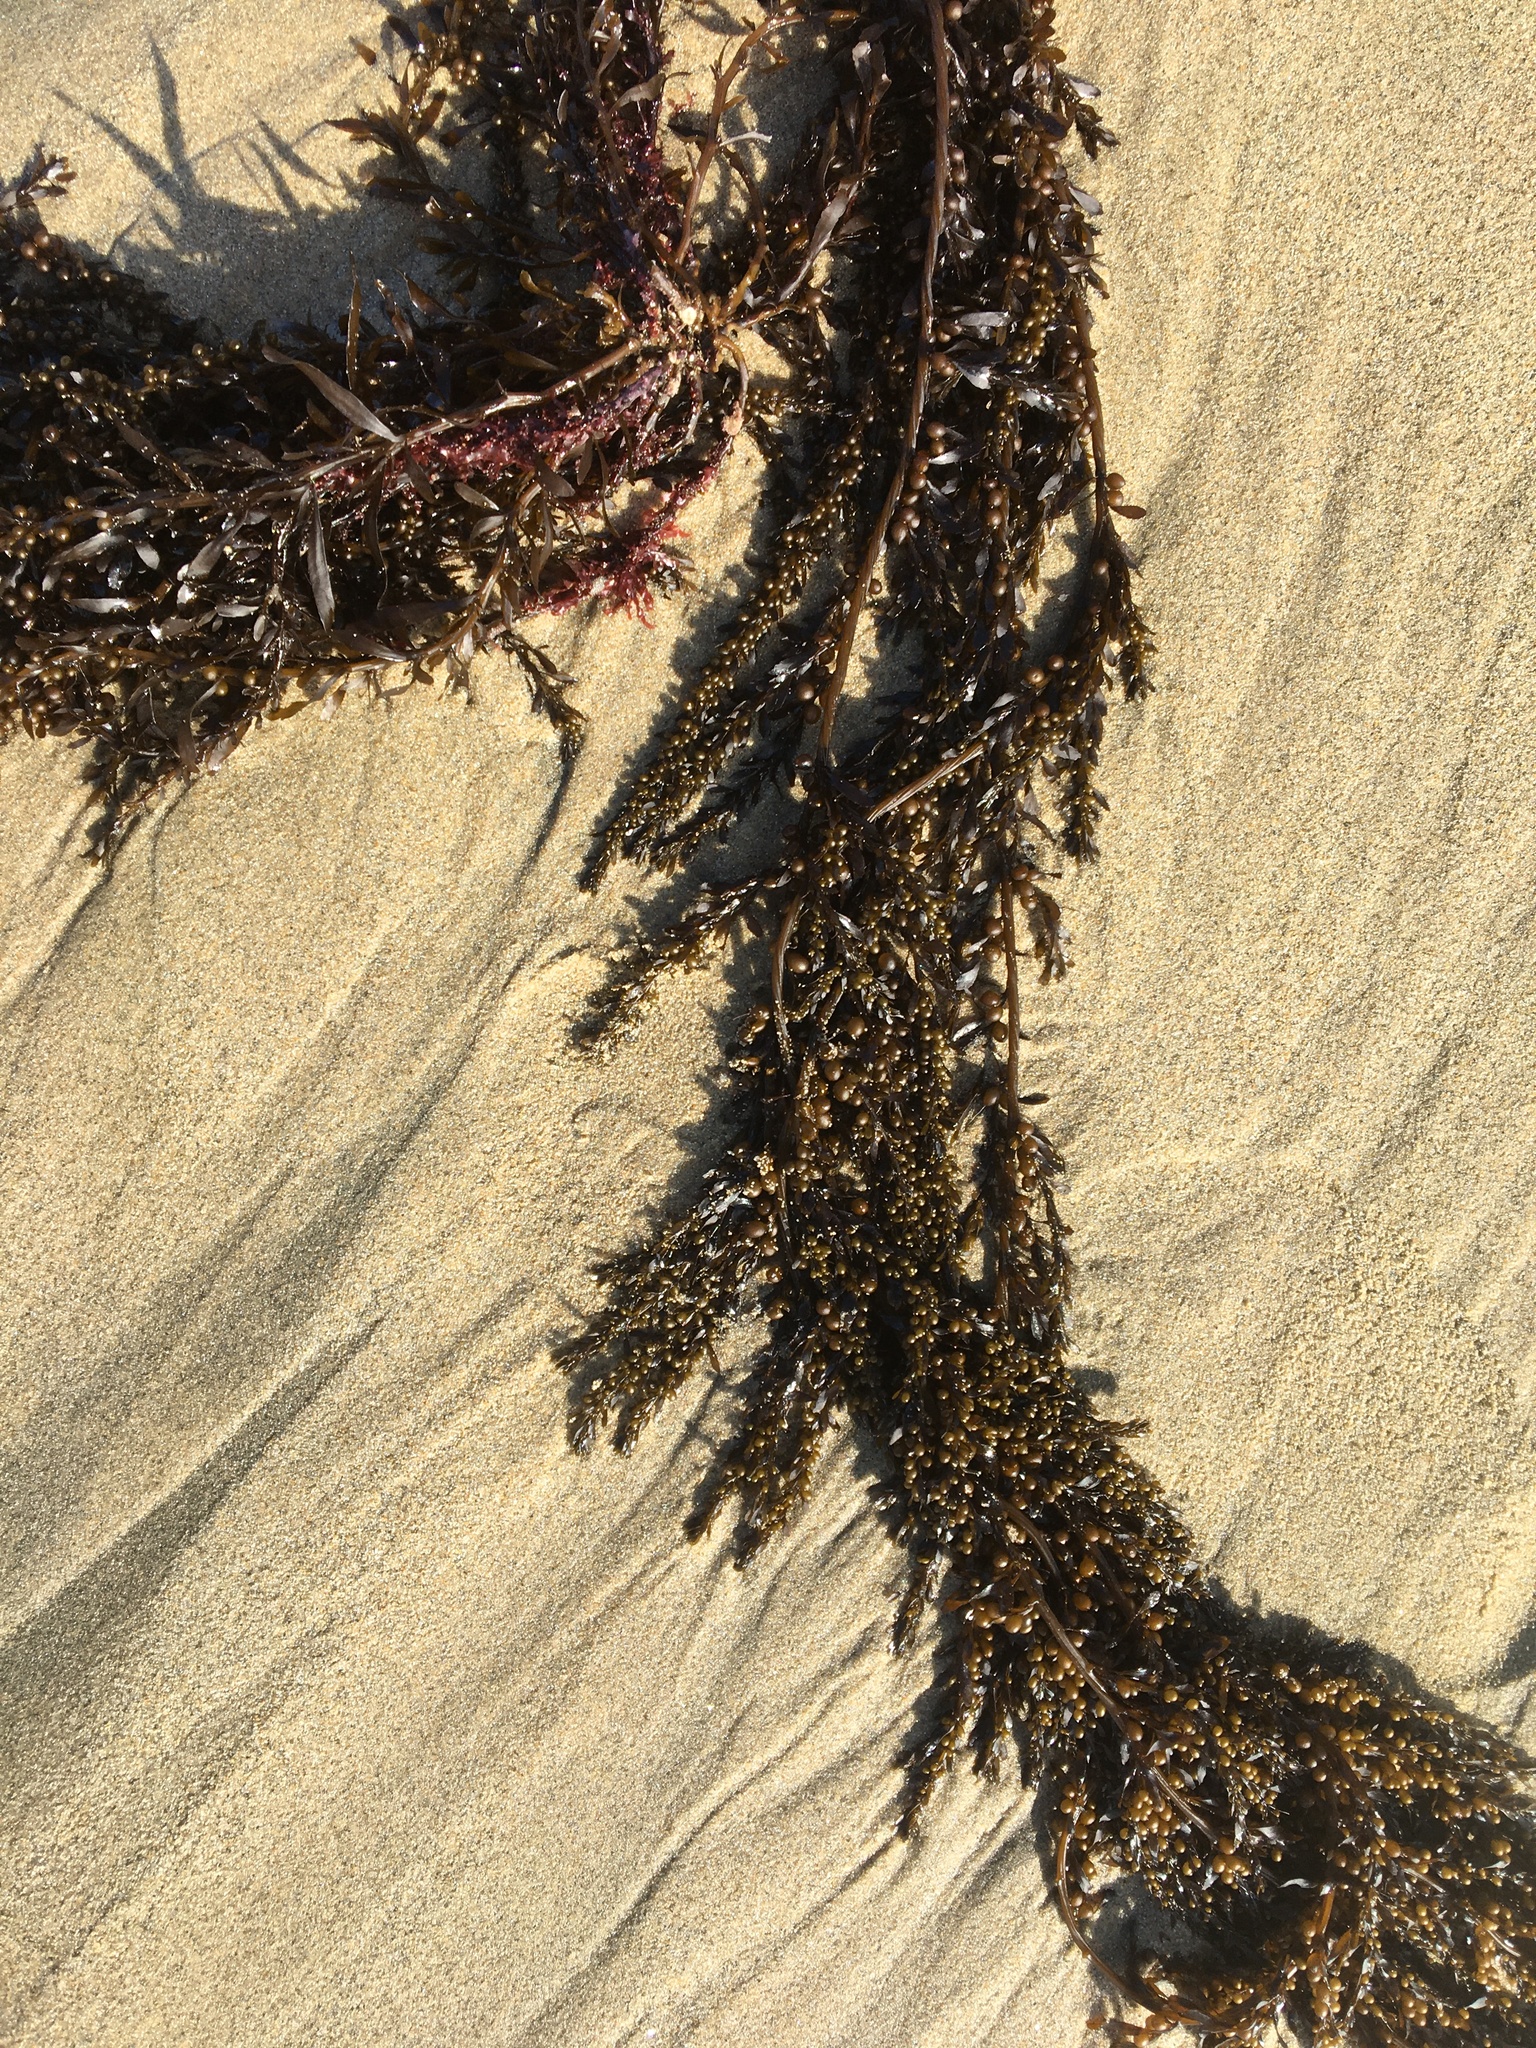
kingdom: Chromista
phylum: Ochrophyta
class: Phaeophyceae
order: Fucales
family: Sargassaceae
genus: Sargassum
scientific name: Sargassum muticum
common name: Japweed
